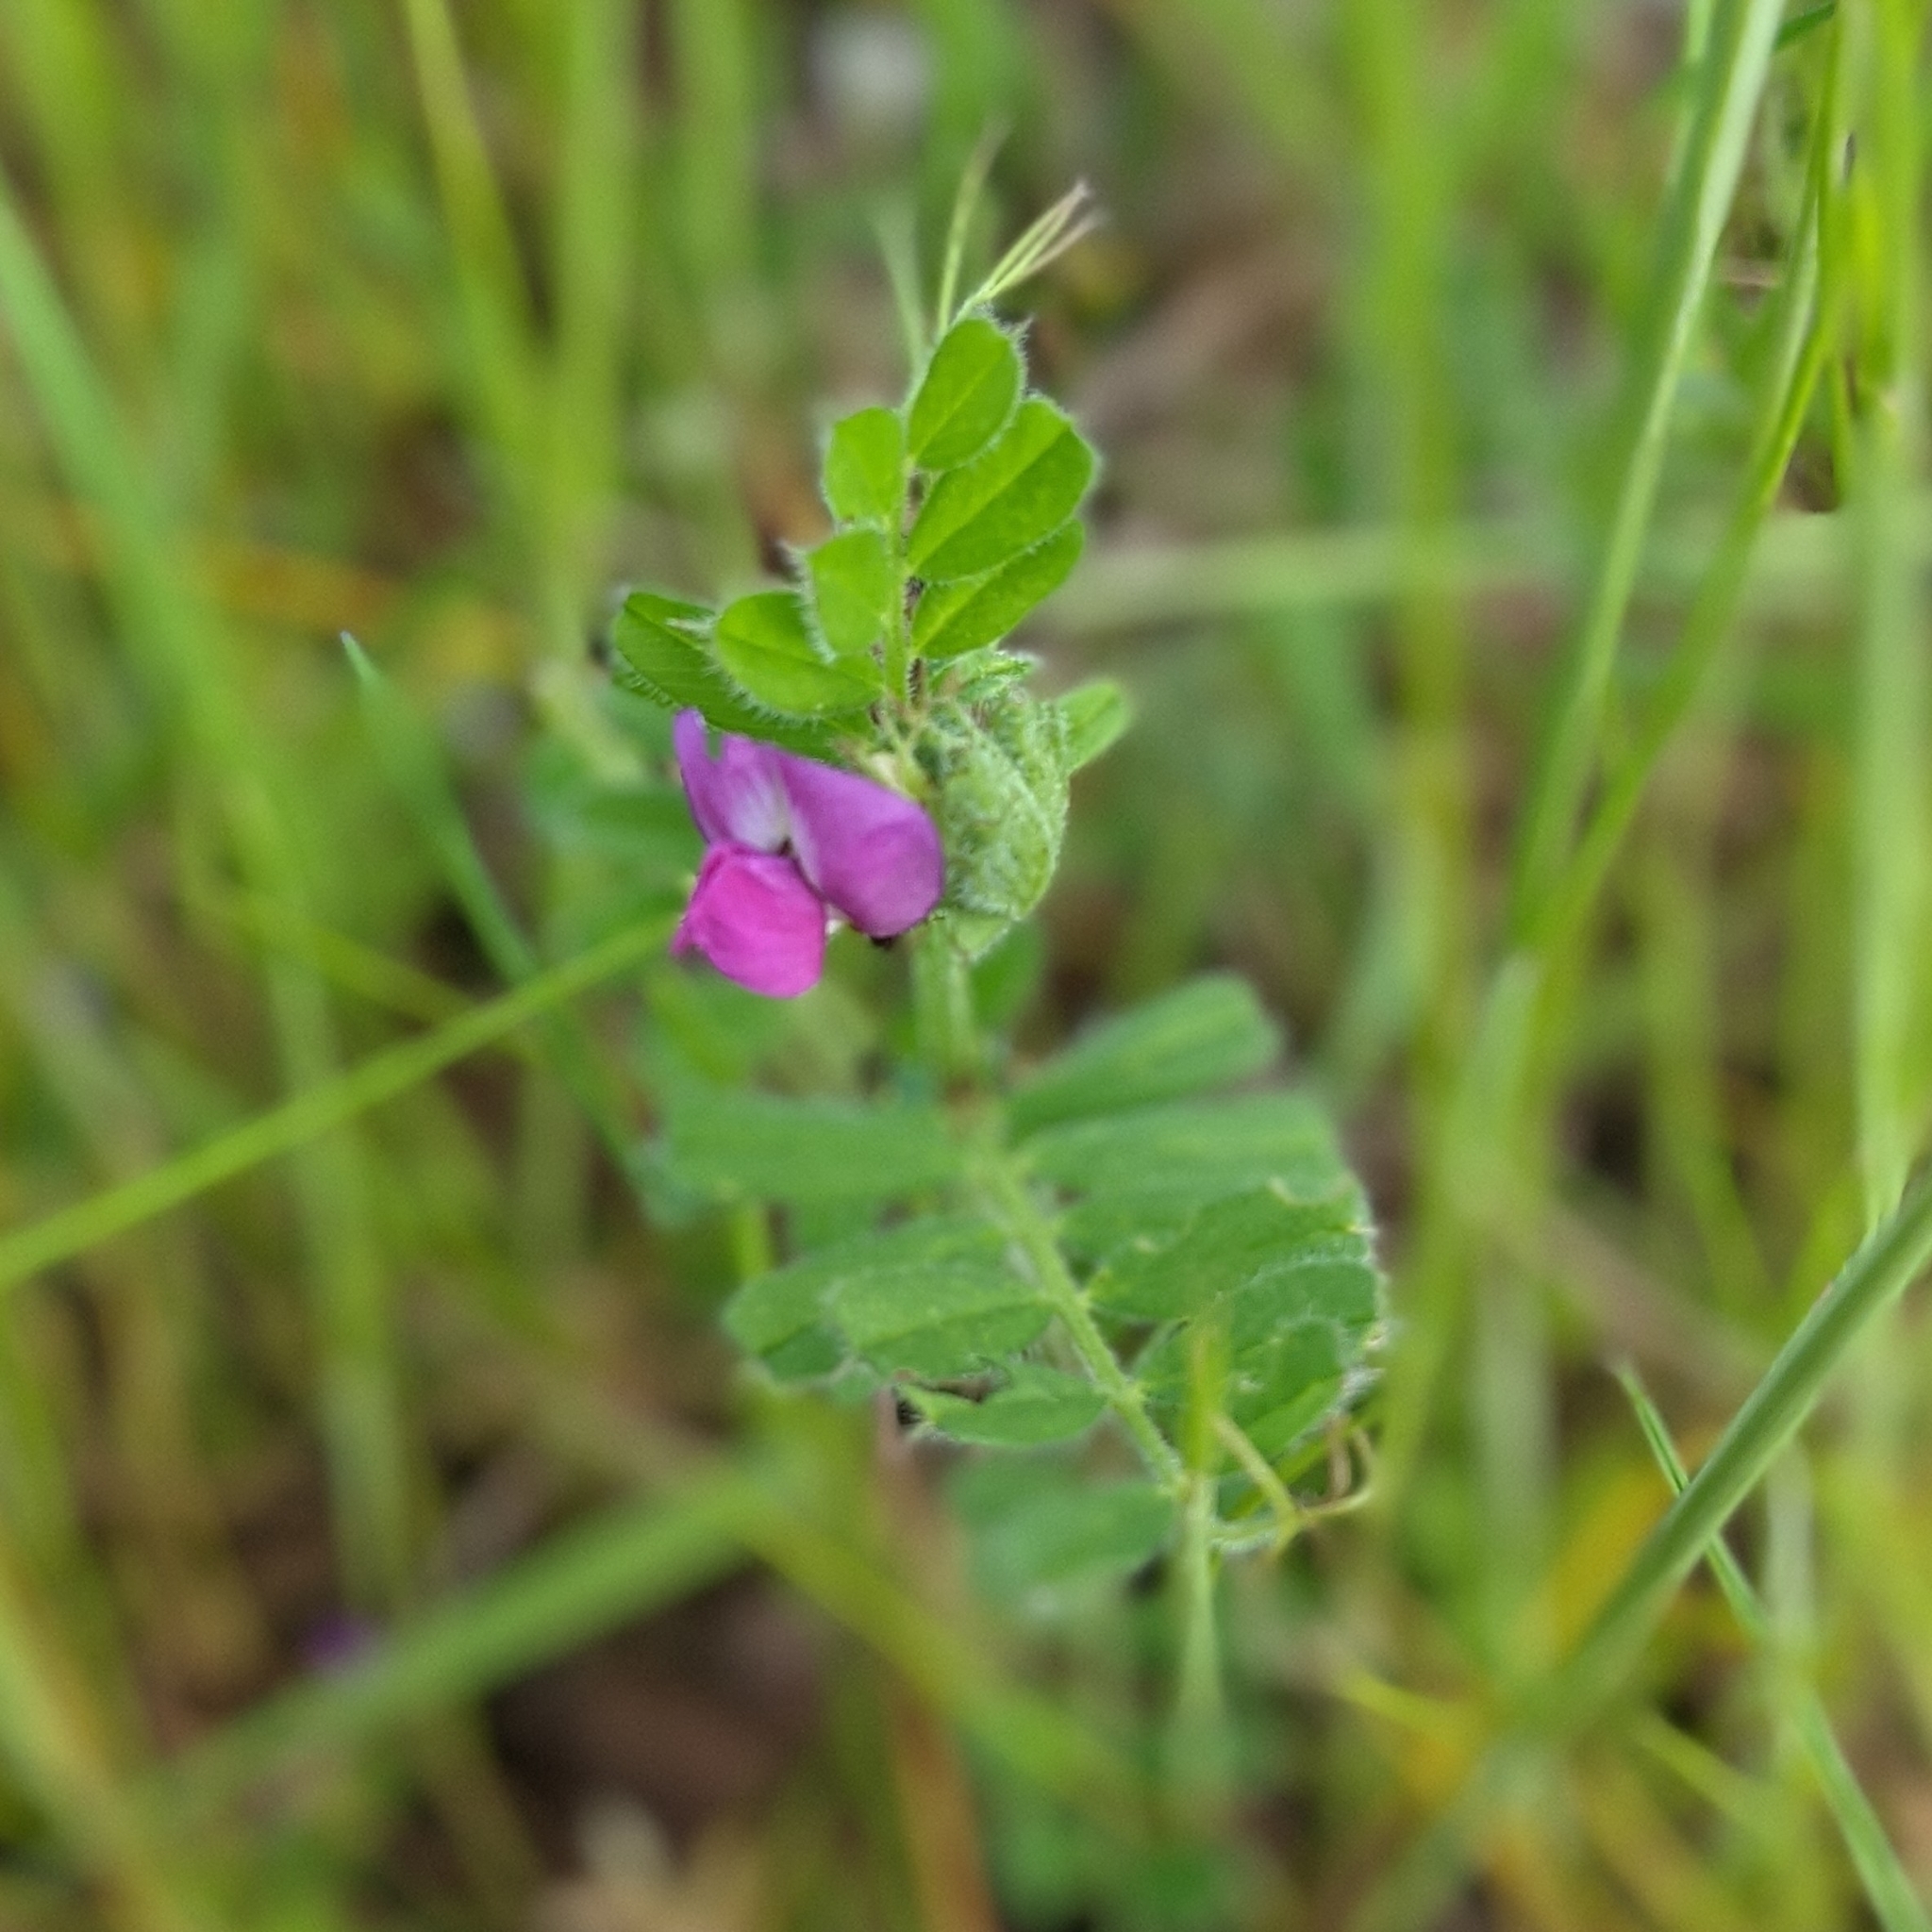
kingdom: Plantae
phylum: Tracheophyta
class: Magnoliopsida
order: Fabales
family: Fabaceae
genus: Vicia
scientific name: Vicia sativa
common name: Garden vetch
